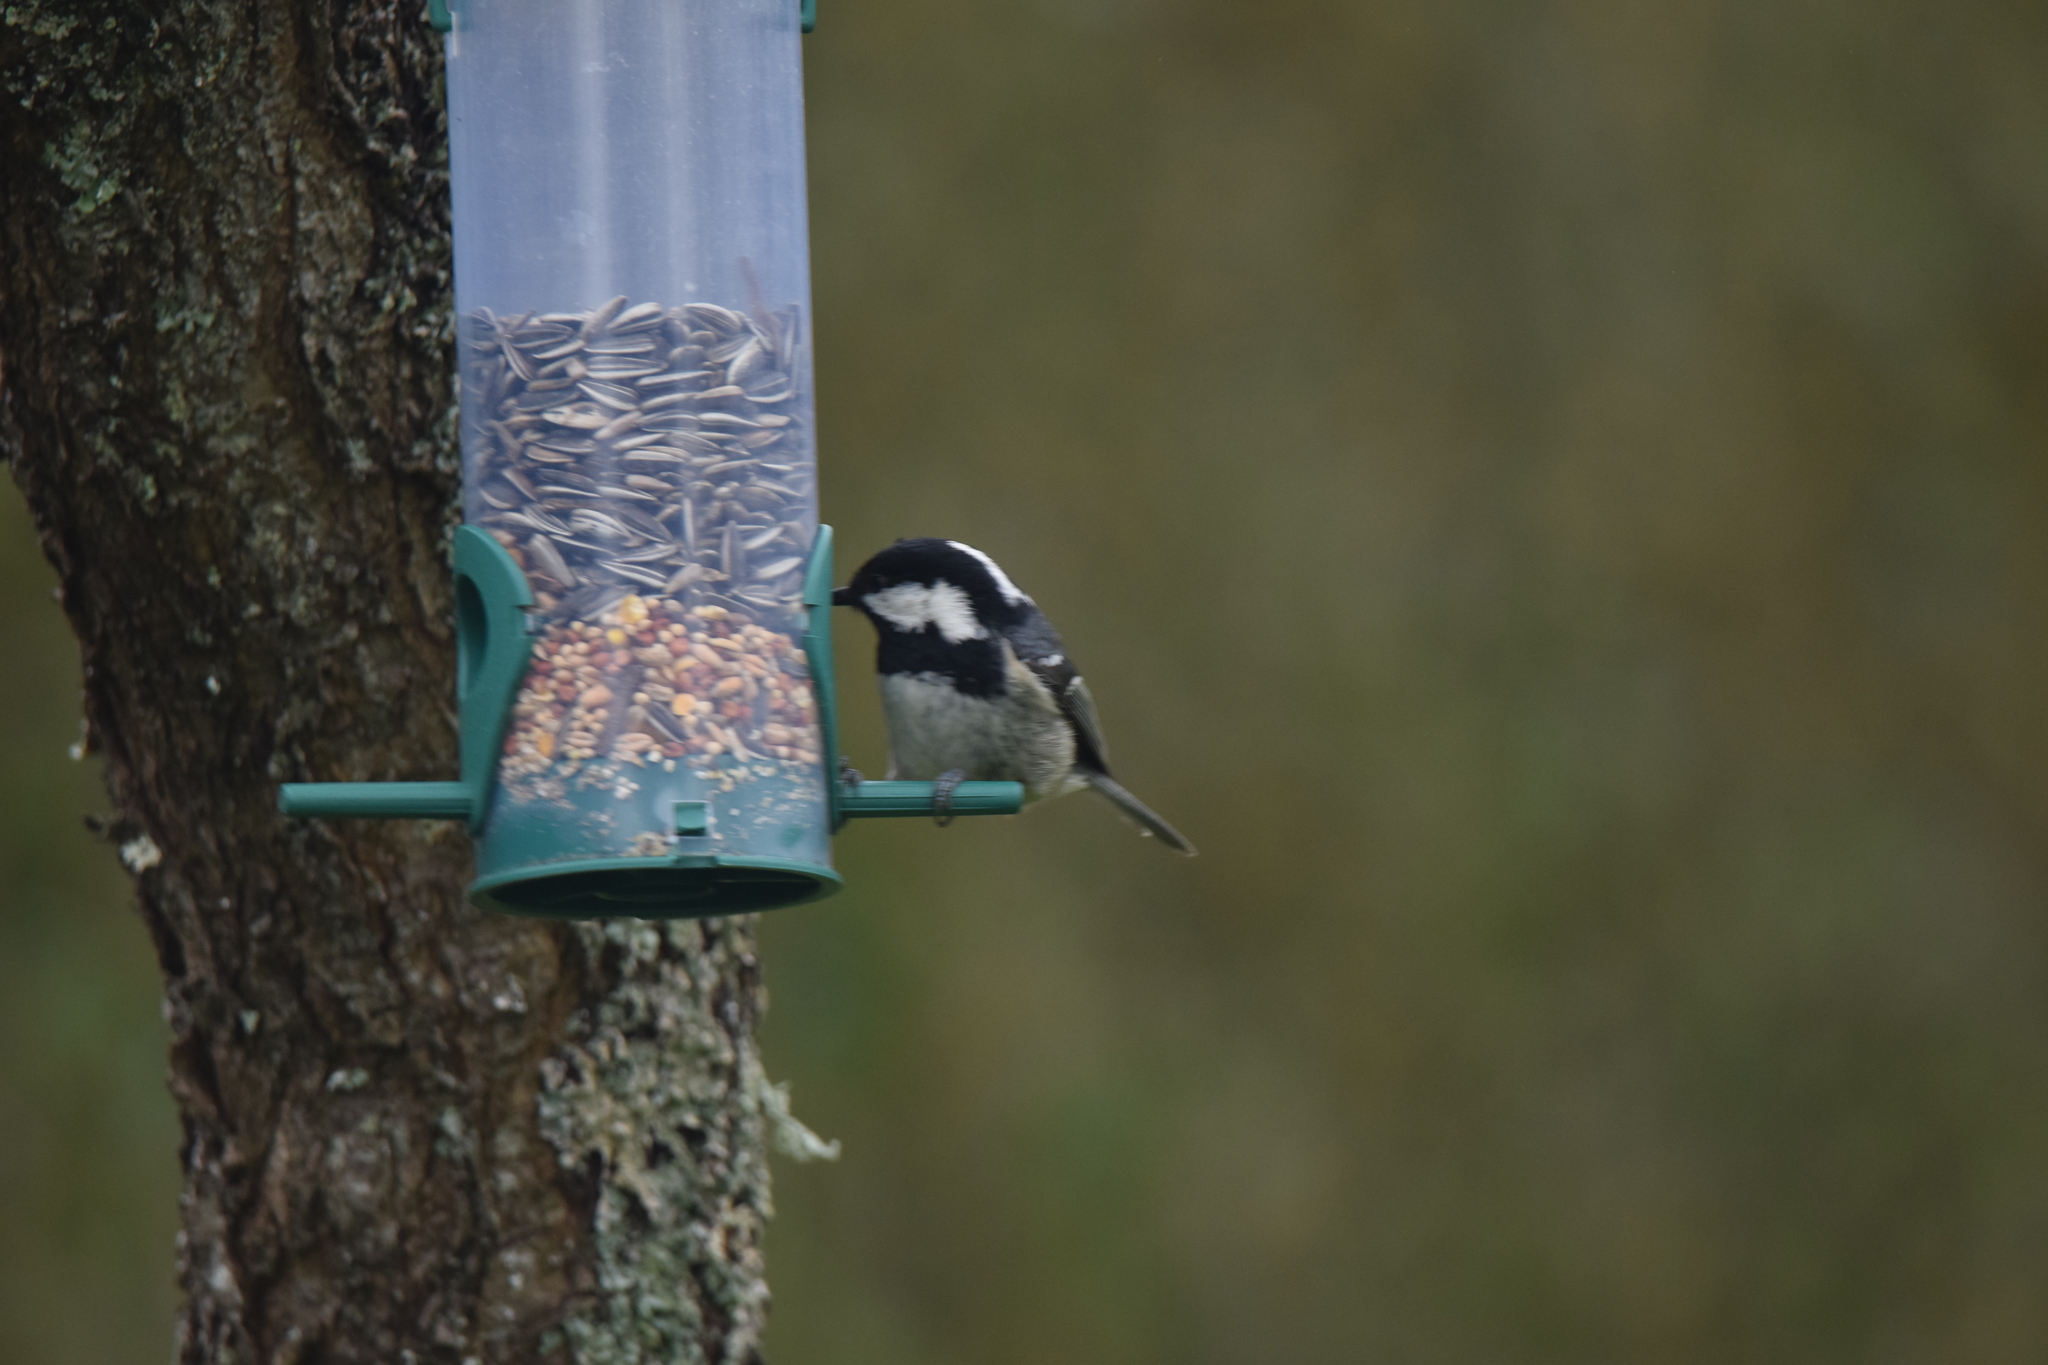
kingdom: Animalia
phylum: Chordata
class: Aves
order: Passeriformes
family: Paridae
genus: Periparus
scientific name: Periparus ater
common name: Coal tit
